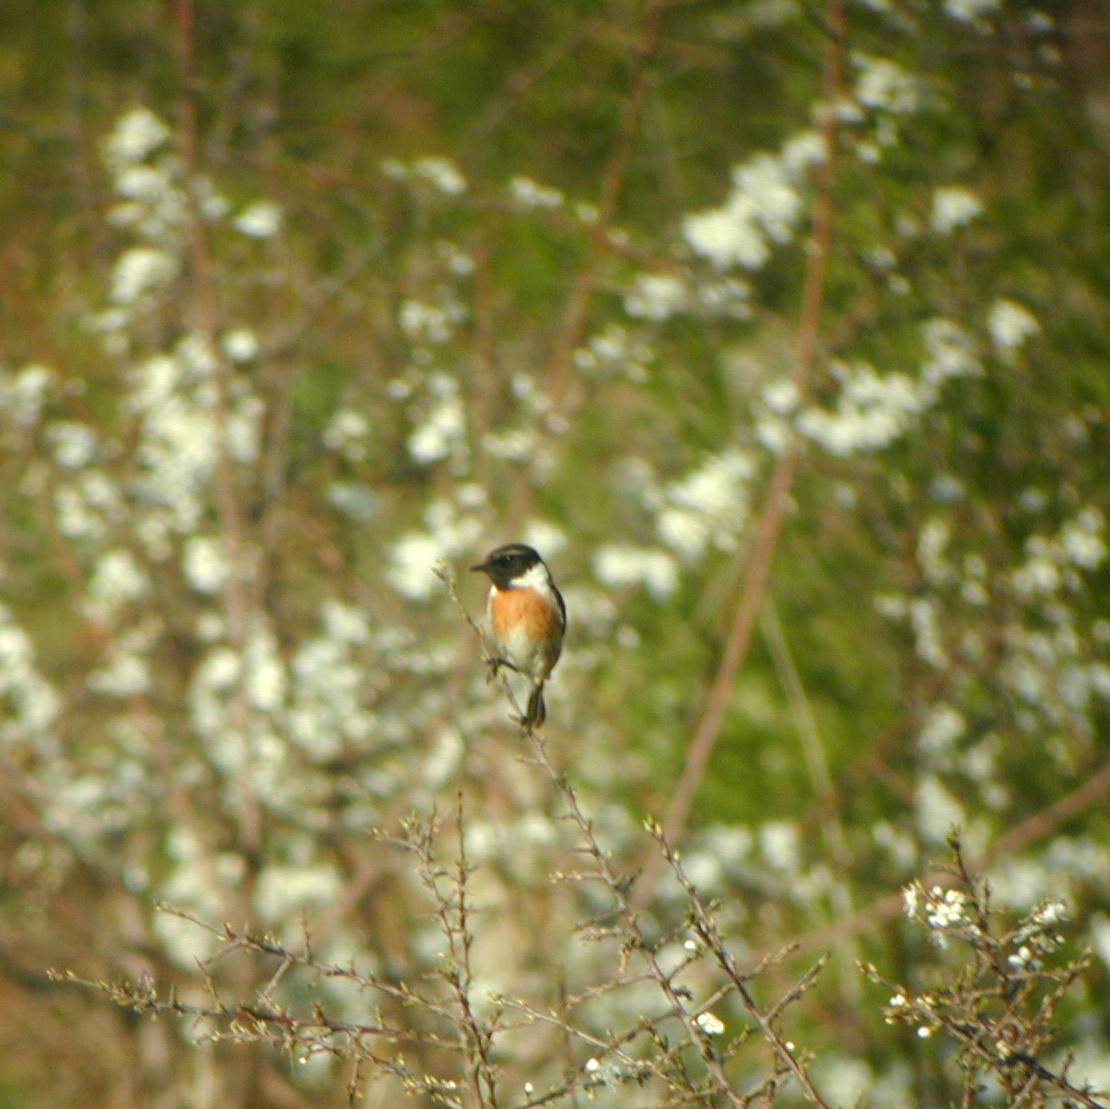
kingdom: Animalia
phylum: Chordata
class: Aves
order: Passeriformes
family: Muscicapidae
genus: Saxicola
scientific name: Saxicola rubicola
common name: European stonechat
